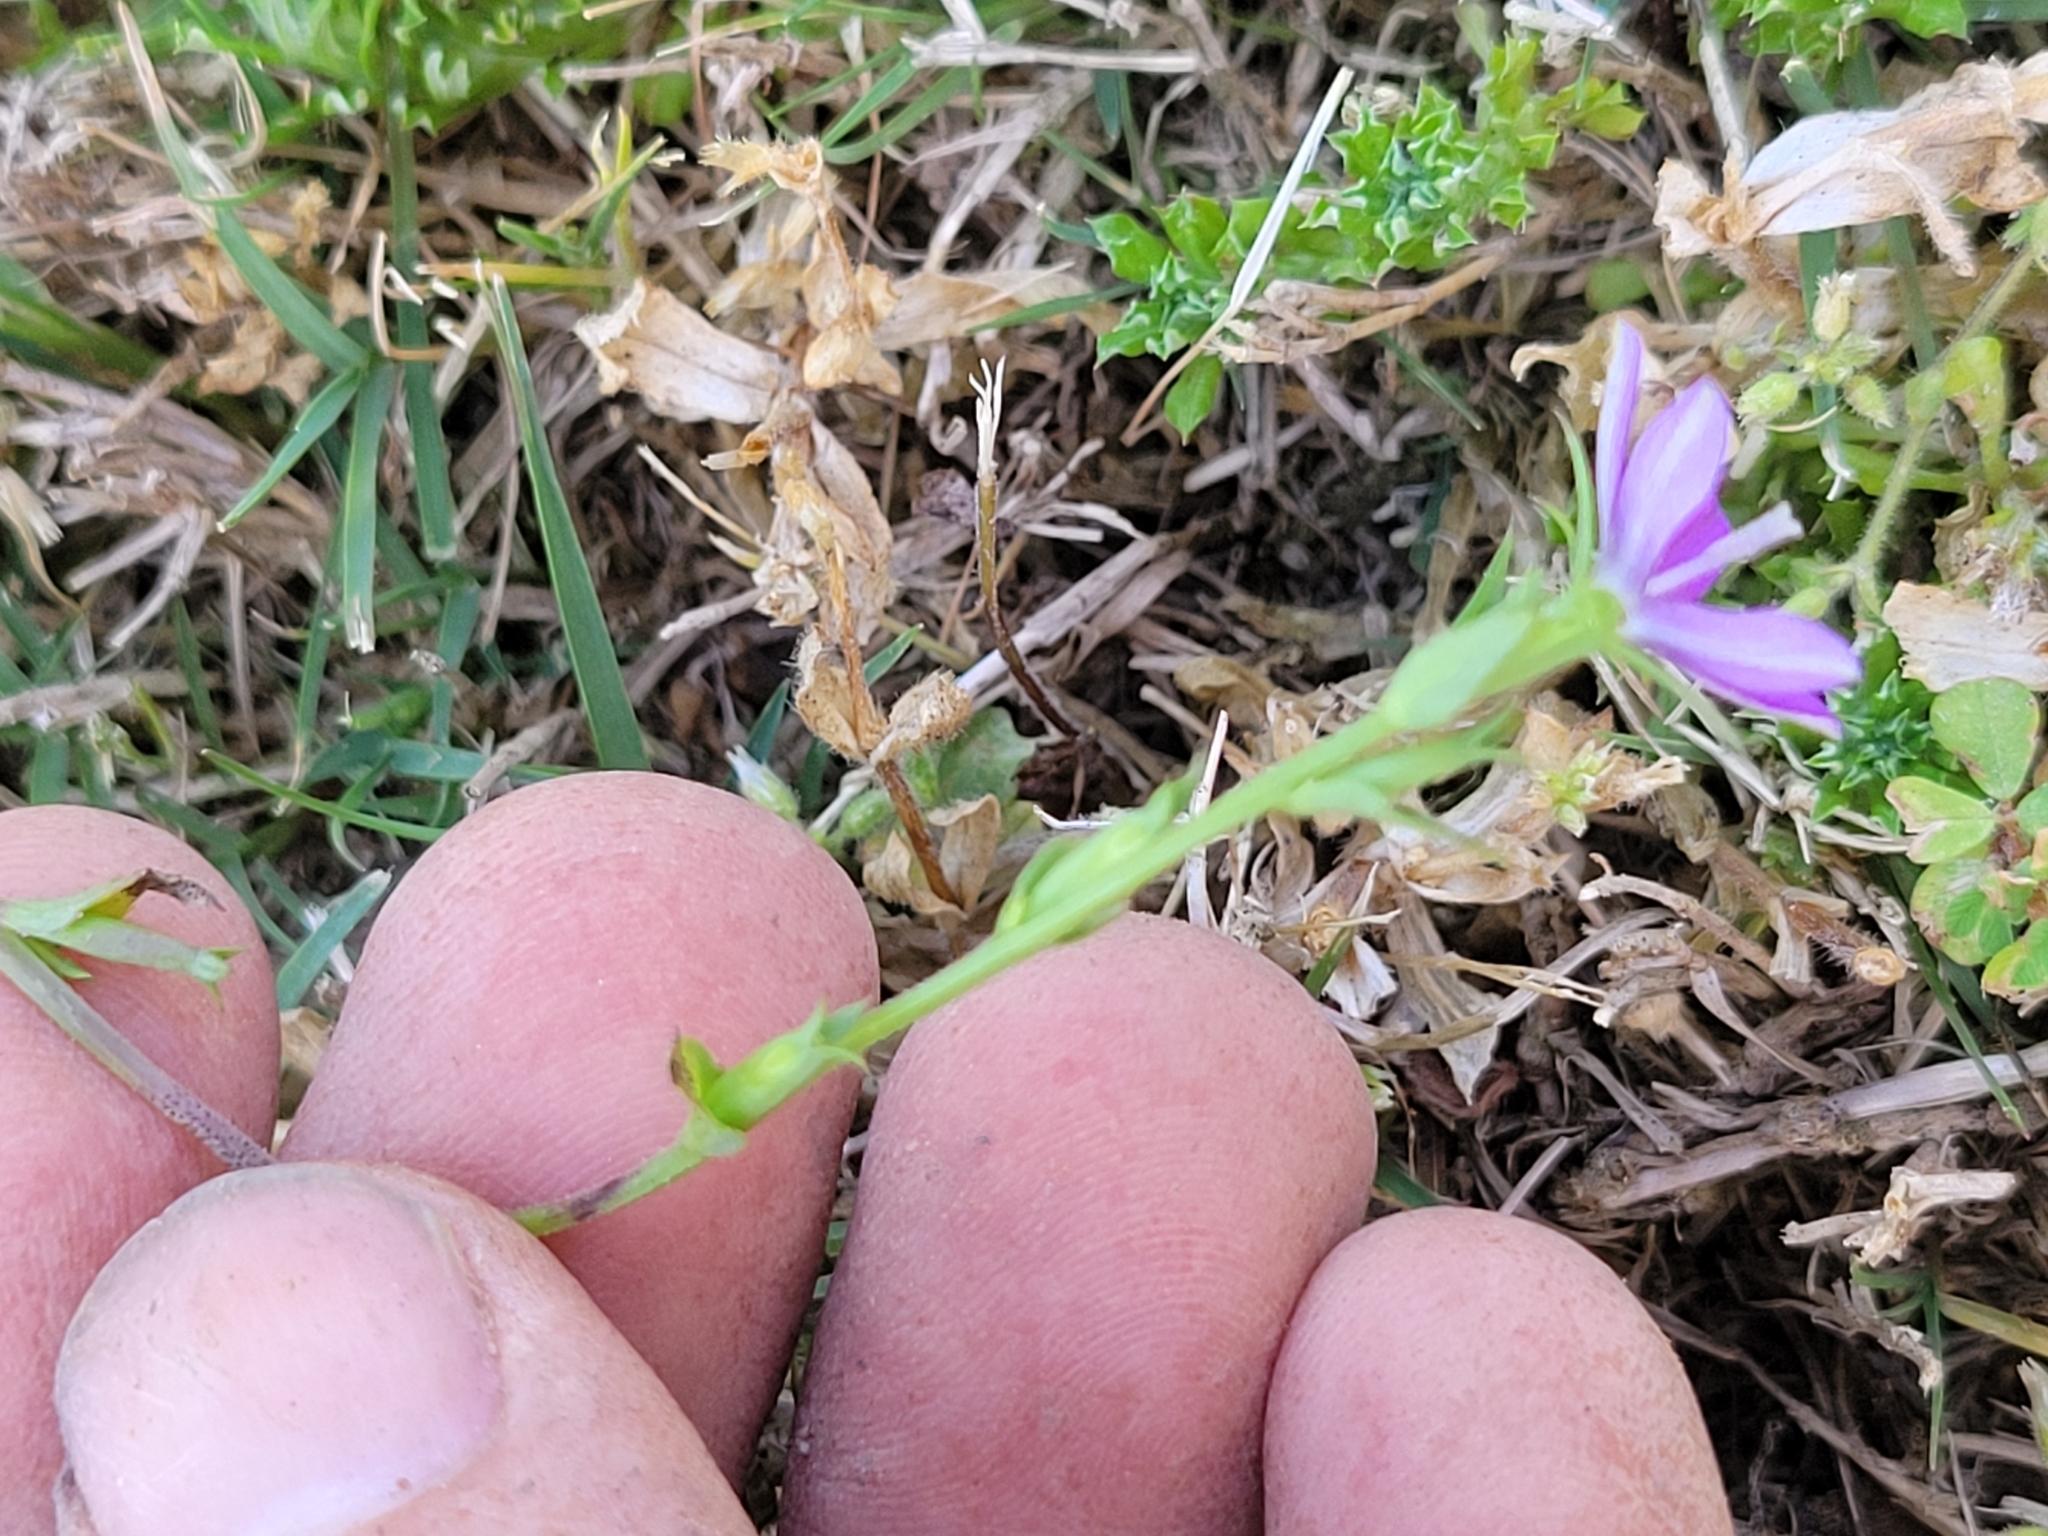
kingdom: Plantae
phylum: Tracheophyta
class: Magnoliopsida
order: Asterales
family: Campanulaceae
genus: Triodanis
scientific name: Triodanis biflora
